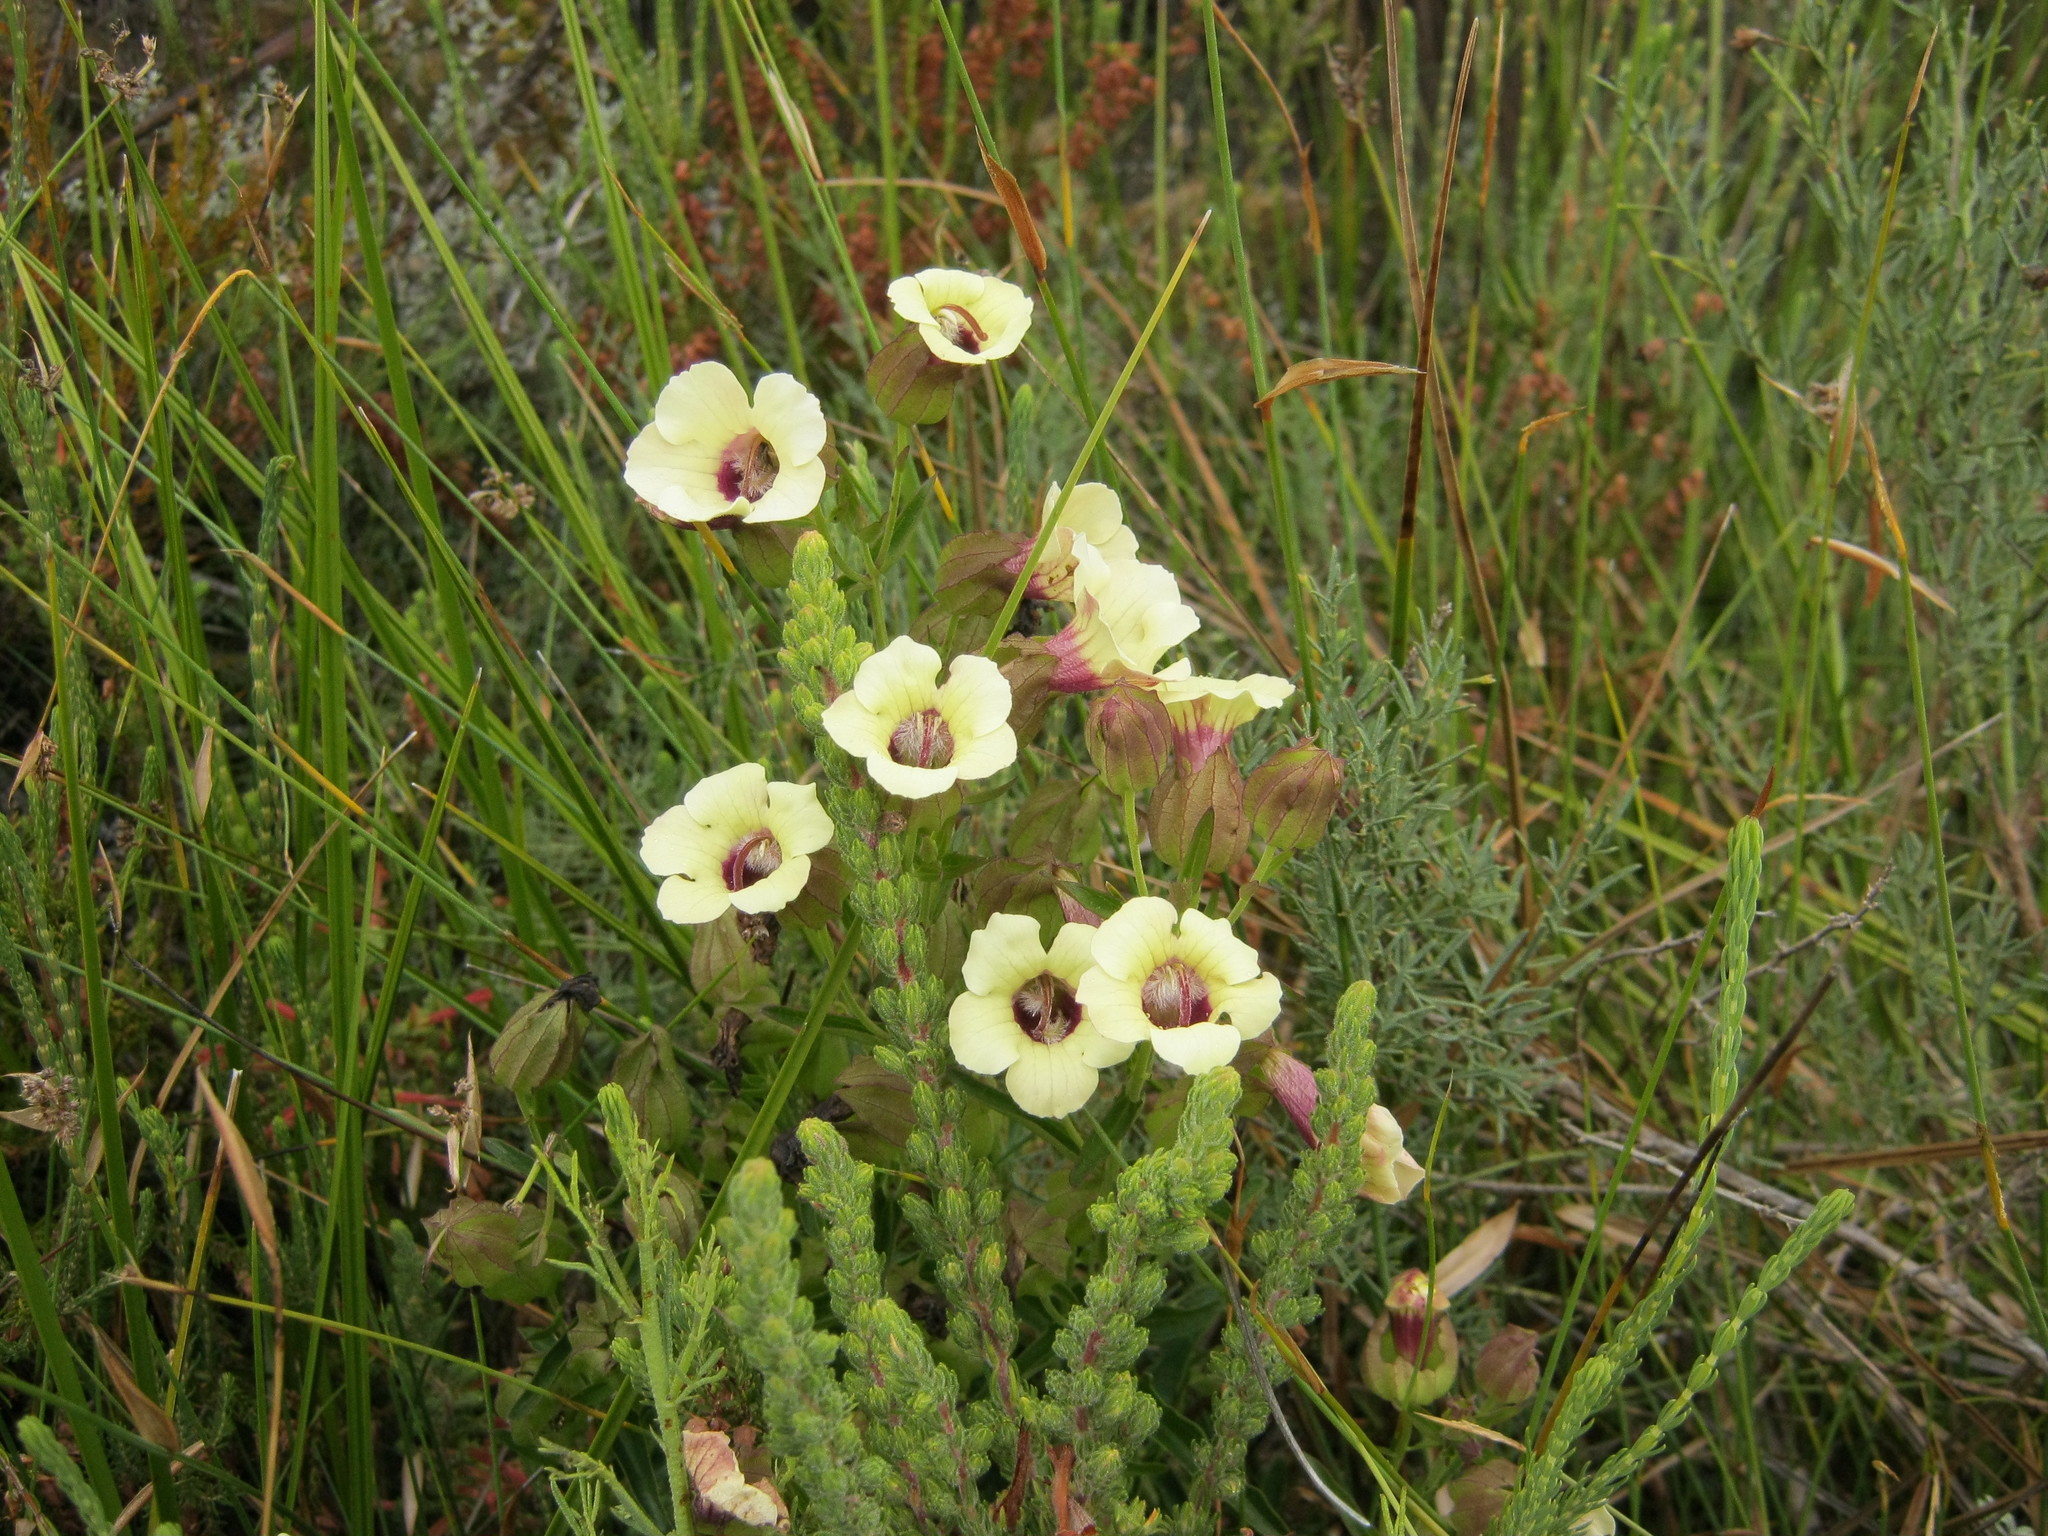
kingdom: Plantae
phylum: Tracheophyta
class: Magnoliopsida
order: Lamiales
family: Orobanchaceae
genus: Melasma
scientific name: Melasma scabrum
